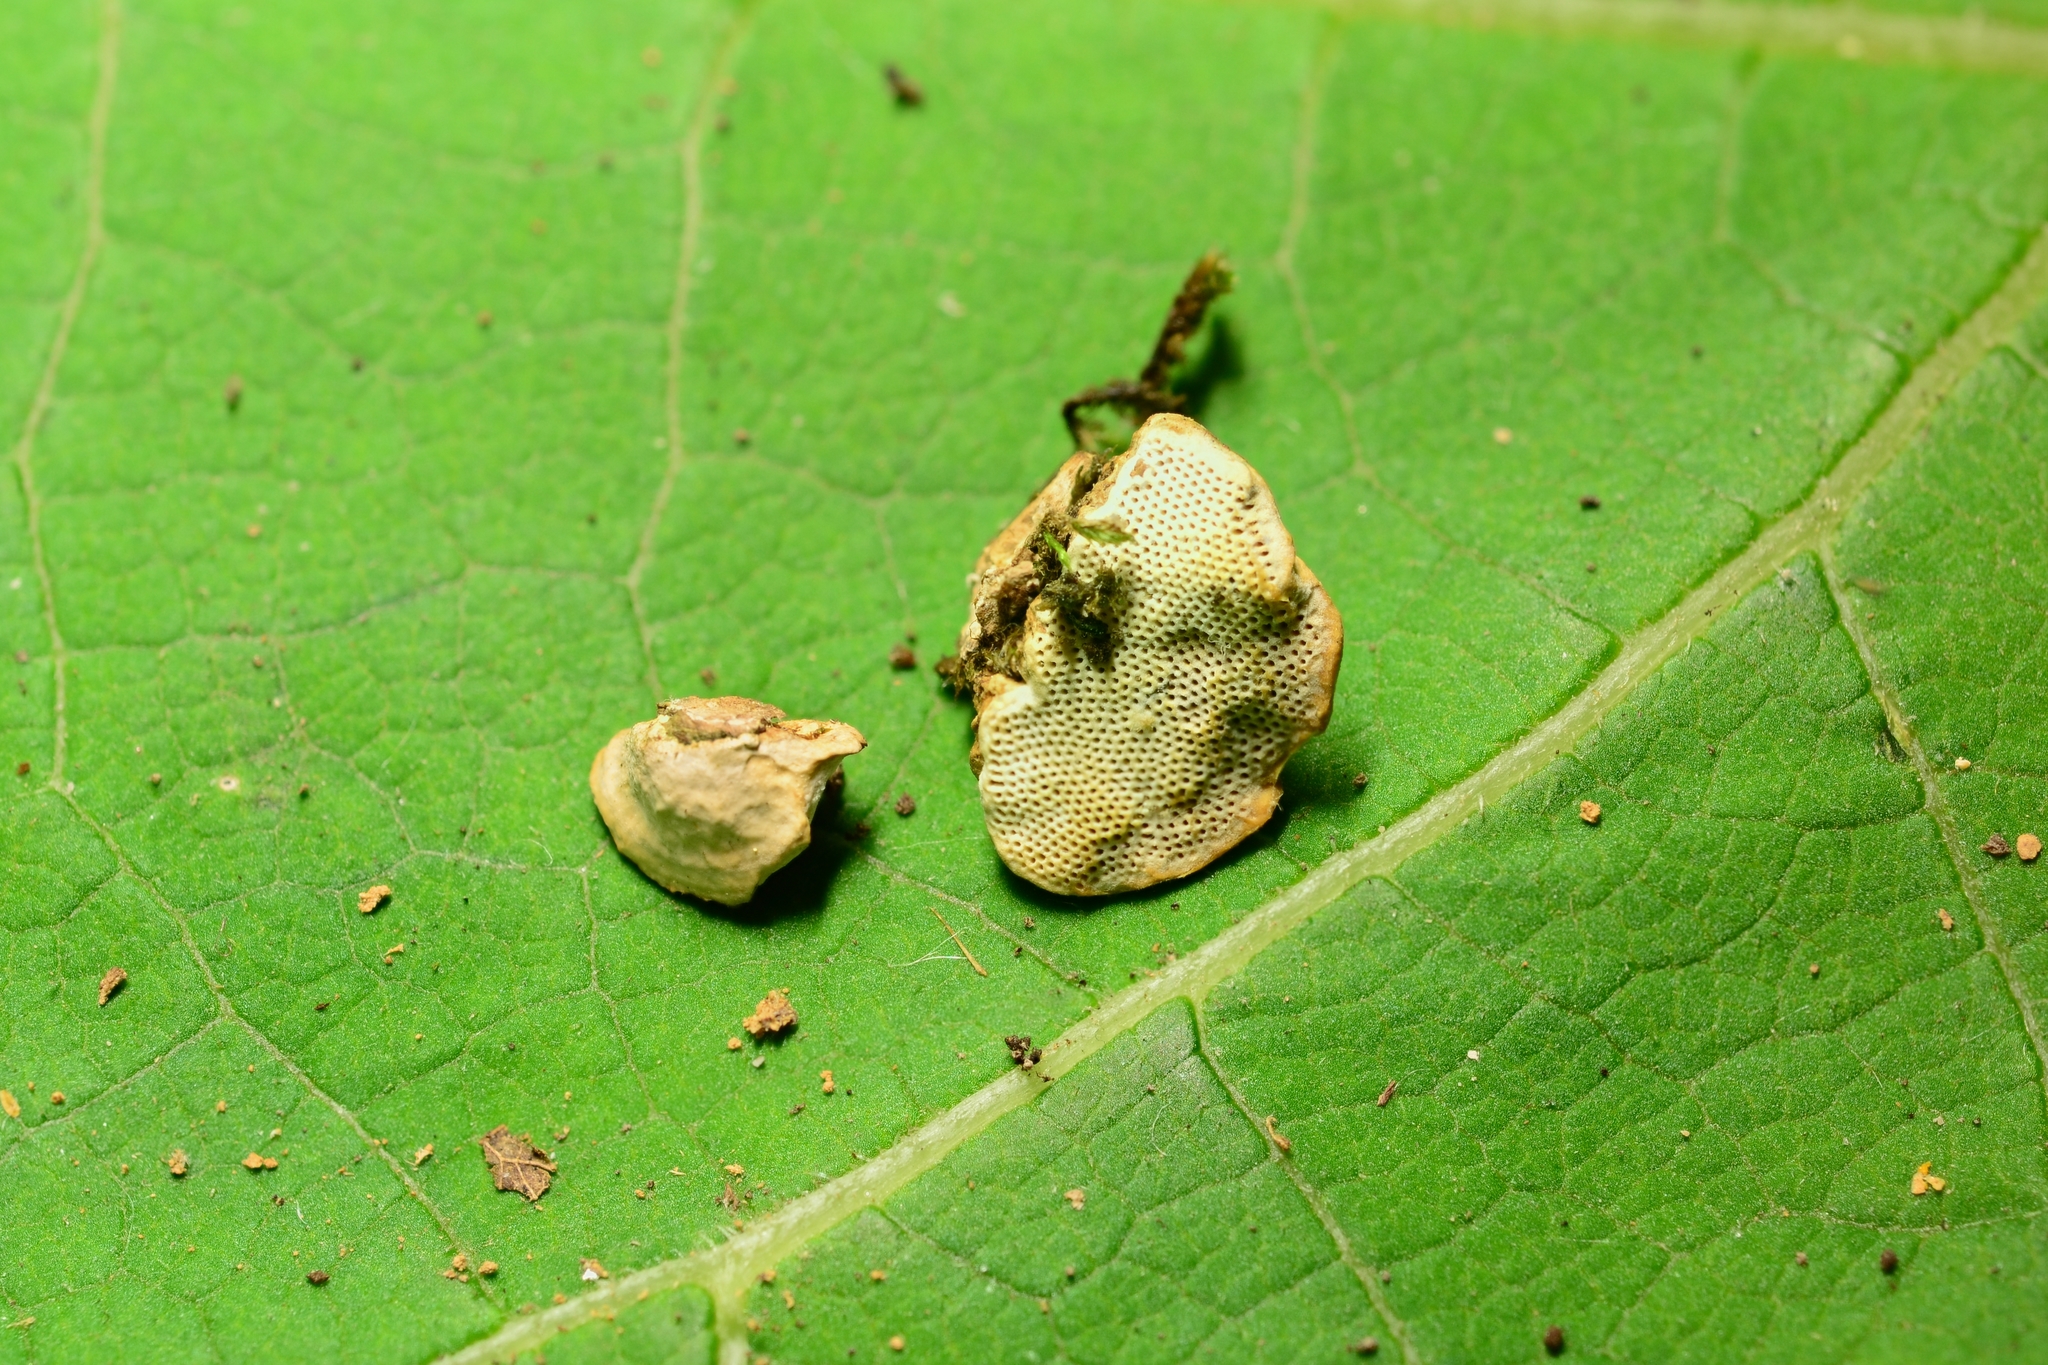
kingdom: Fungi
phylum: Basidiomycota
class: Agaricomycetes
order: Polyporales
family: Polyporaceae
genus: Perenniporia
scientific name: Perenniporia ohiensis
